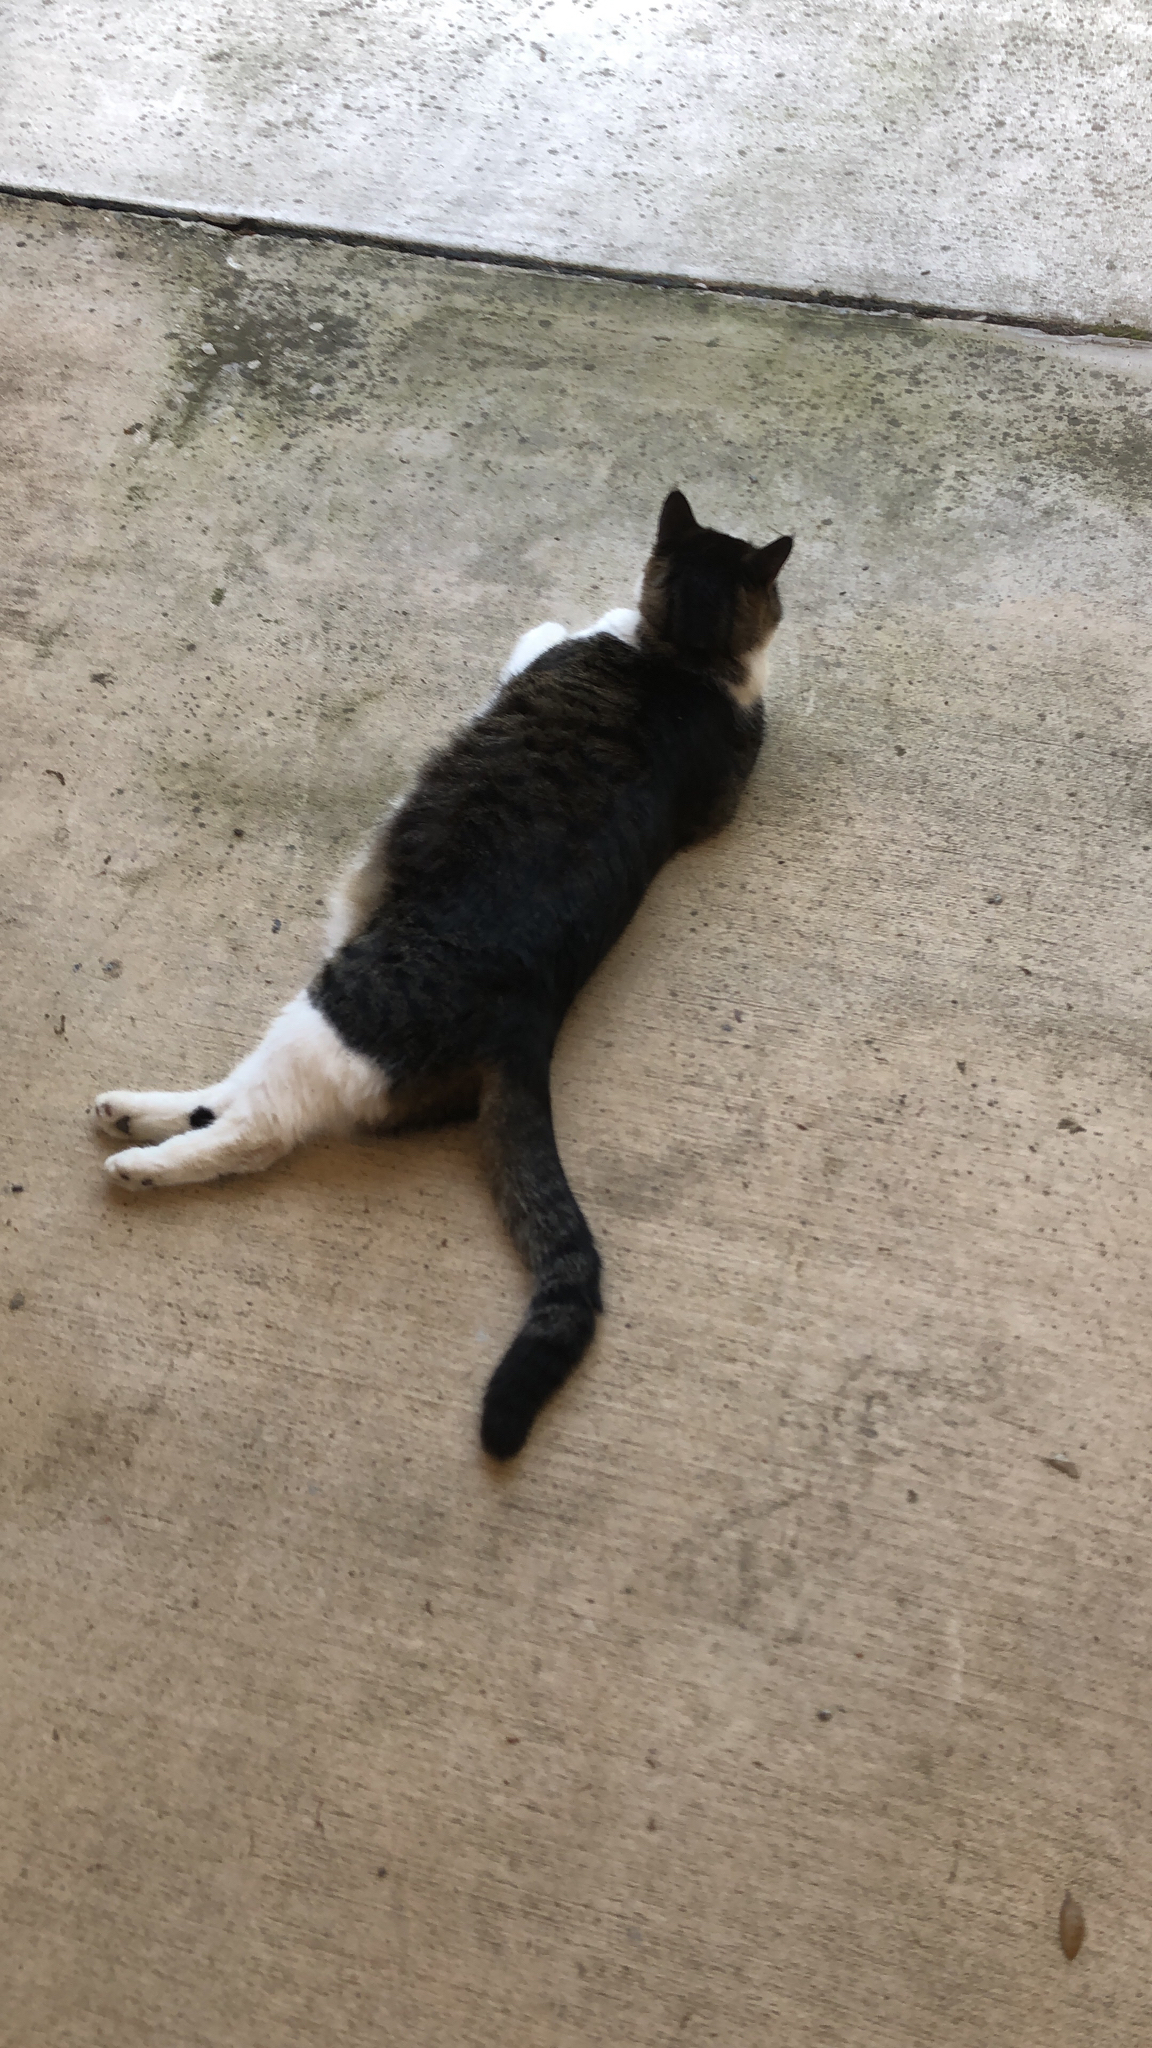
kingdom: Animalia
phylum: Chordata
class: Mammalia
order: Carnivora
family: Felidae
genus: Felis
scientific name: Felis catus
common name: Domestic cat
